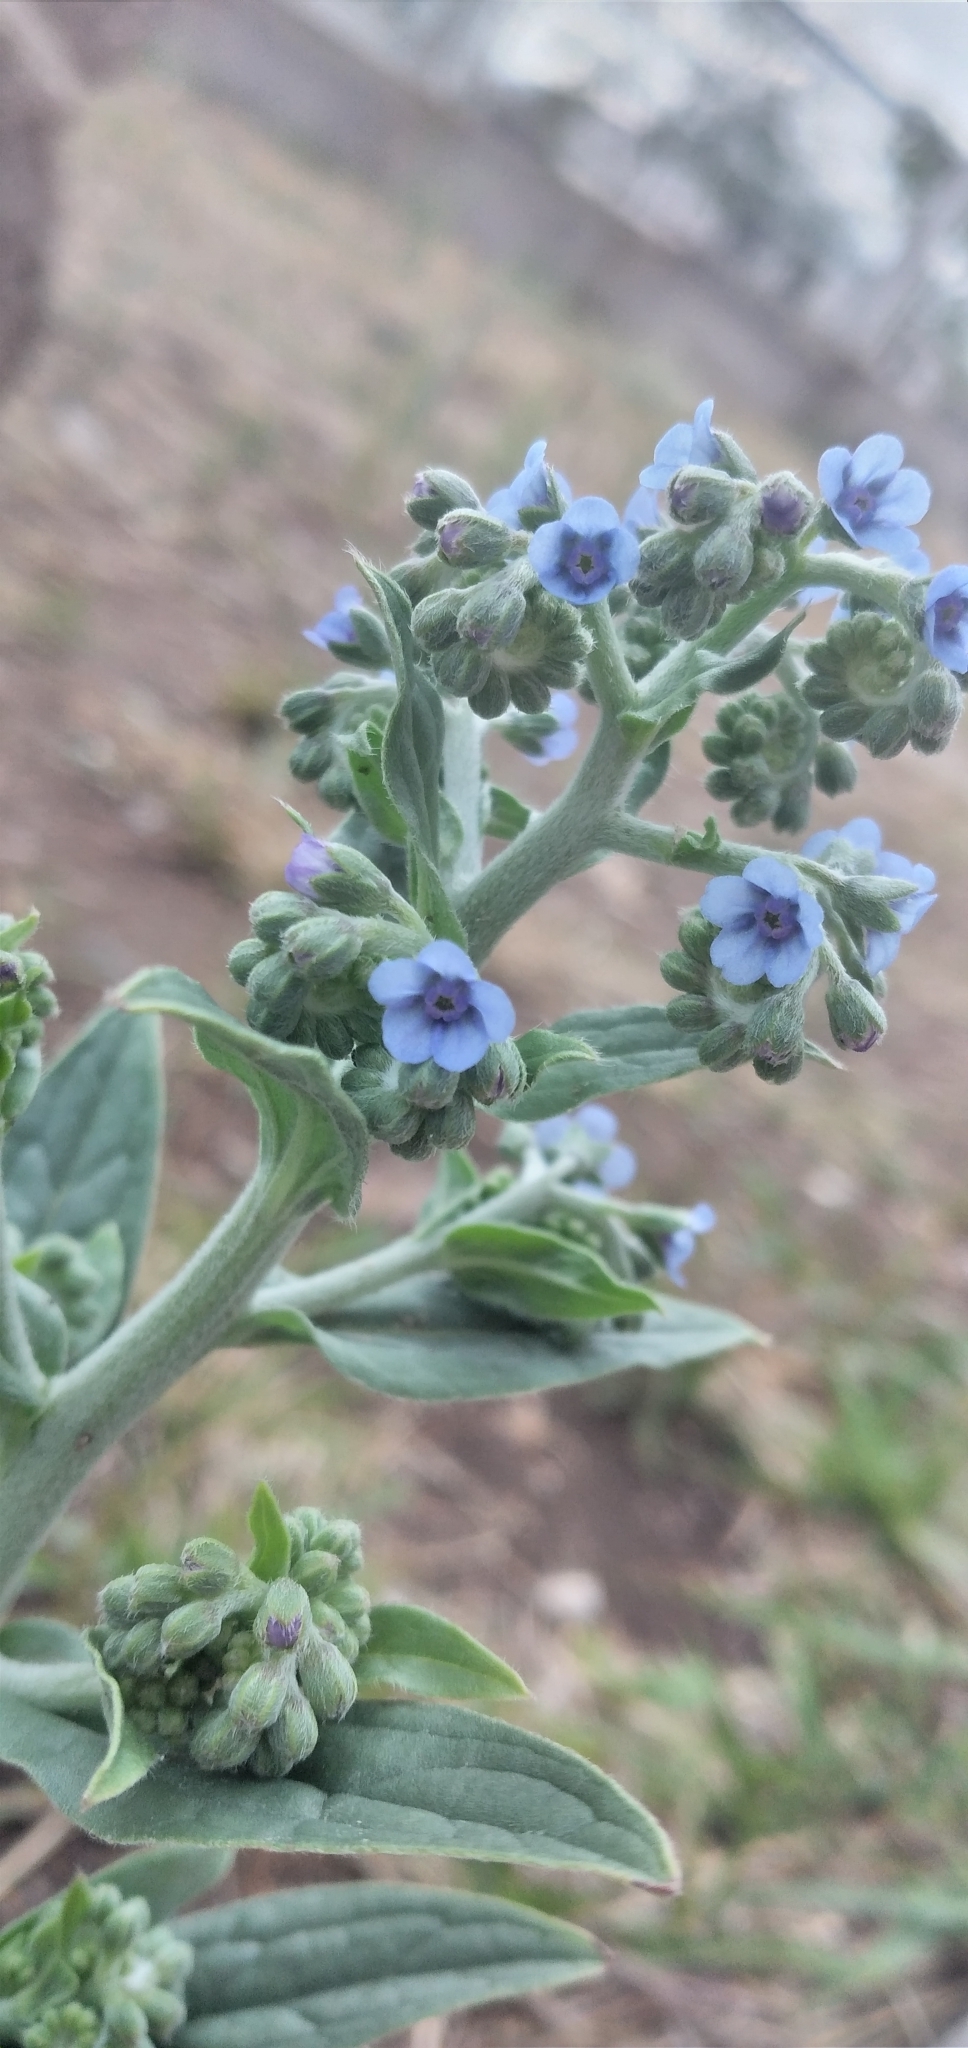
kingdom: Plantae
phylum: Tracheophyta
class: Magnoliopsida
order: Boraginales
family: Boraginaceae
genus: Cynoglossum
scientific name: Cynoglossum amabile
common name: Chinese hound's tongue
